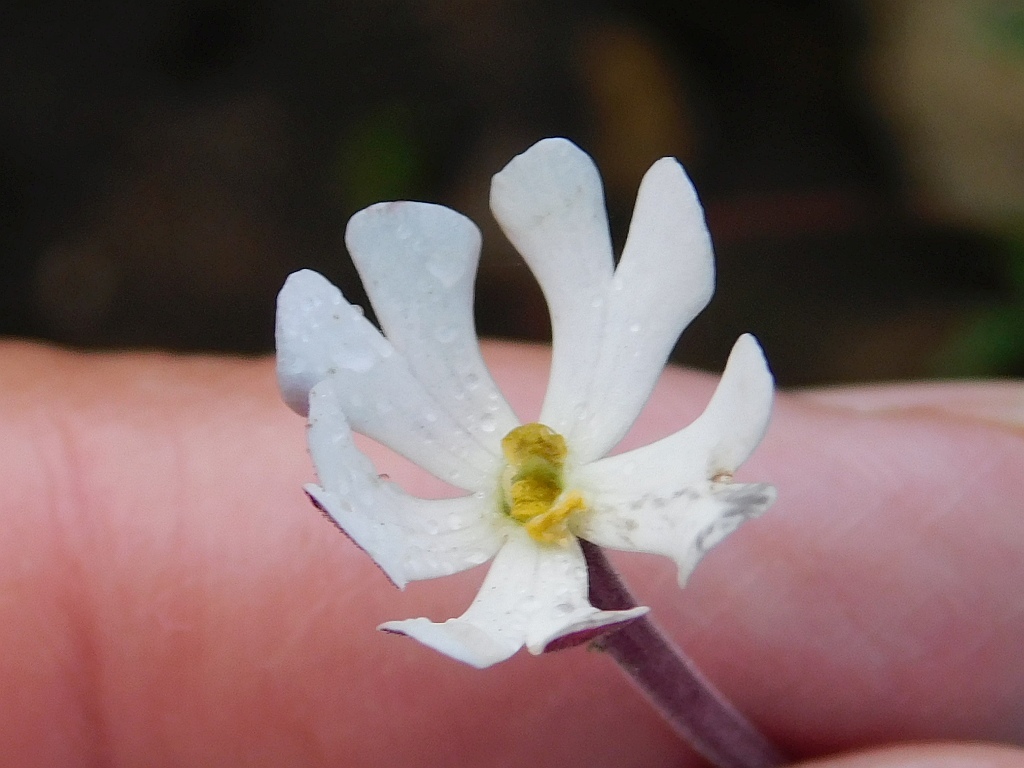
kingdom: Plantae
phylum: Tracheophyta
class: Magnoliopsida
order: Lamiales
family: Scrophulariaceae
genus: Zaluzianskya
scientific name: Zaluzianskya capensis
